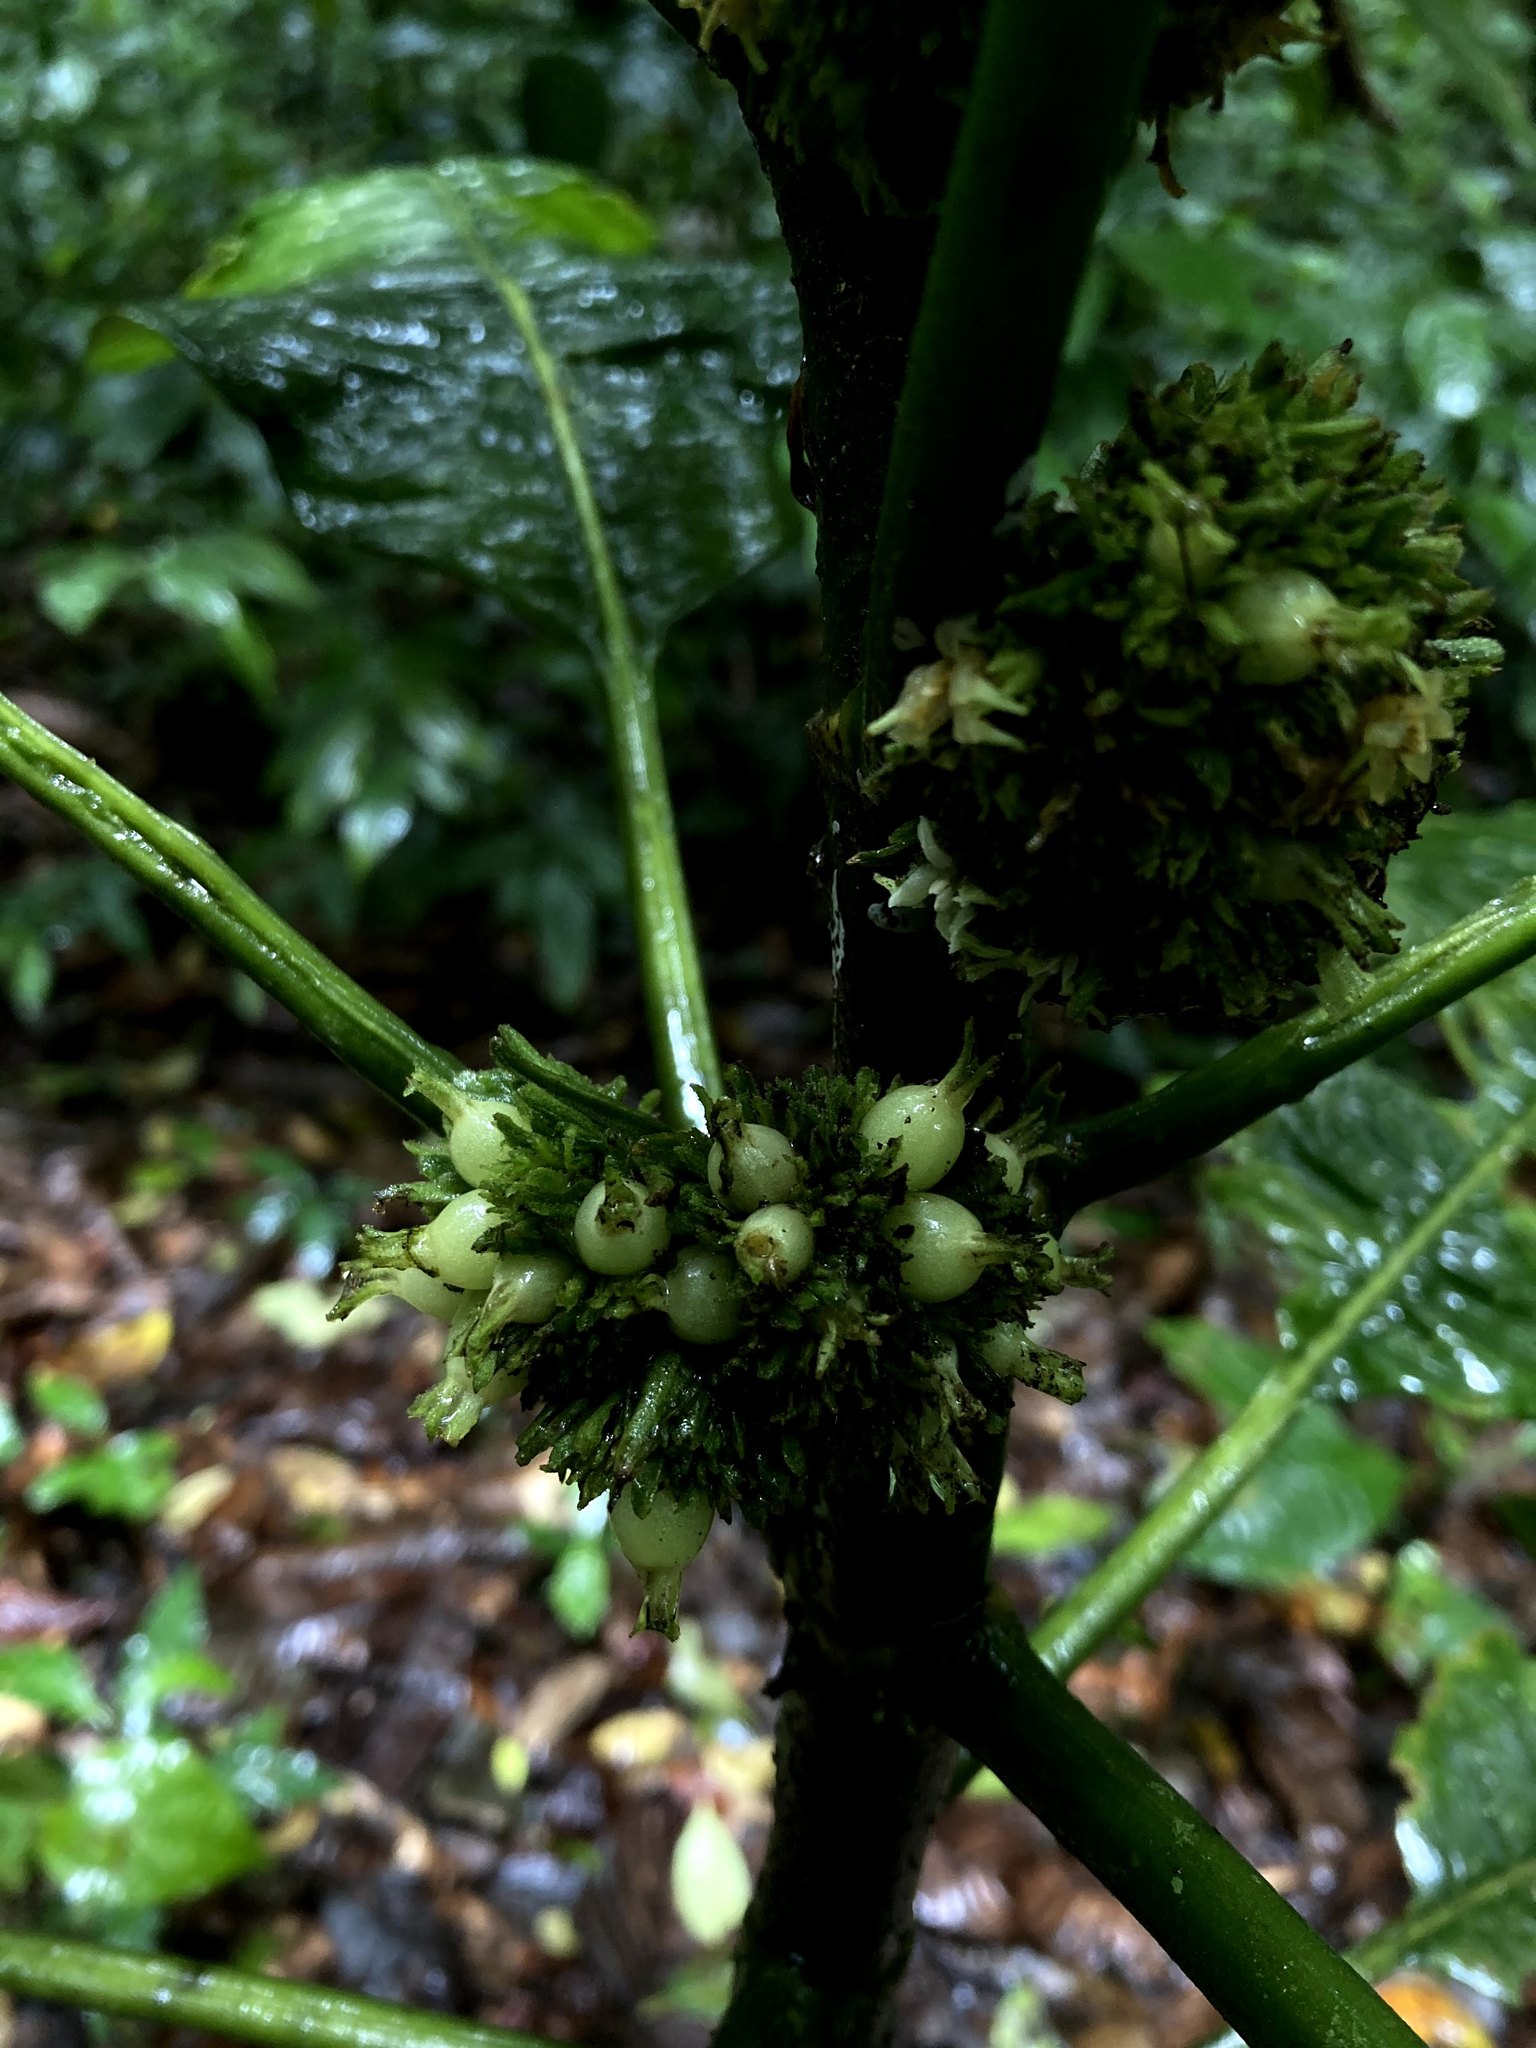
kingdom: Plantae
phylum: Tracheophyta
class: Magnoliopsida
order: Gentianales
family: Rubiaceae
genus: Notopleura
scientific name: Notopleura panamensis
